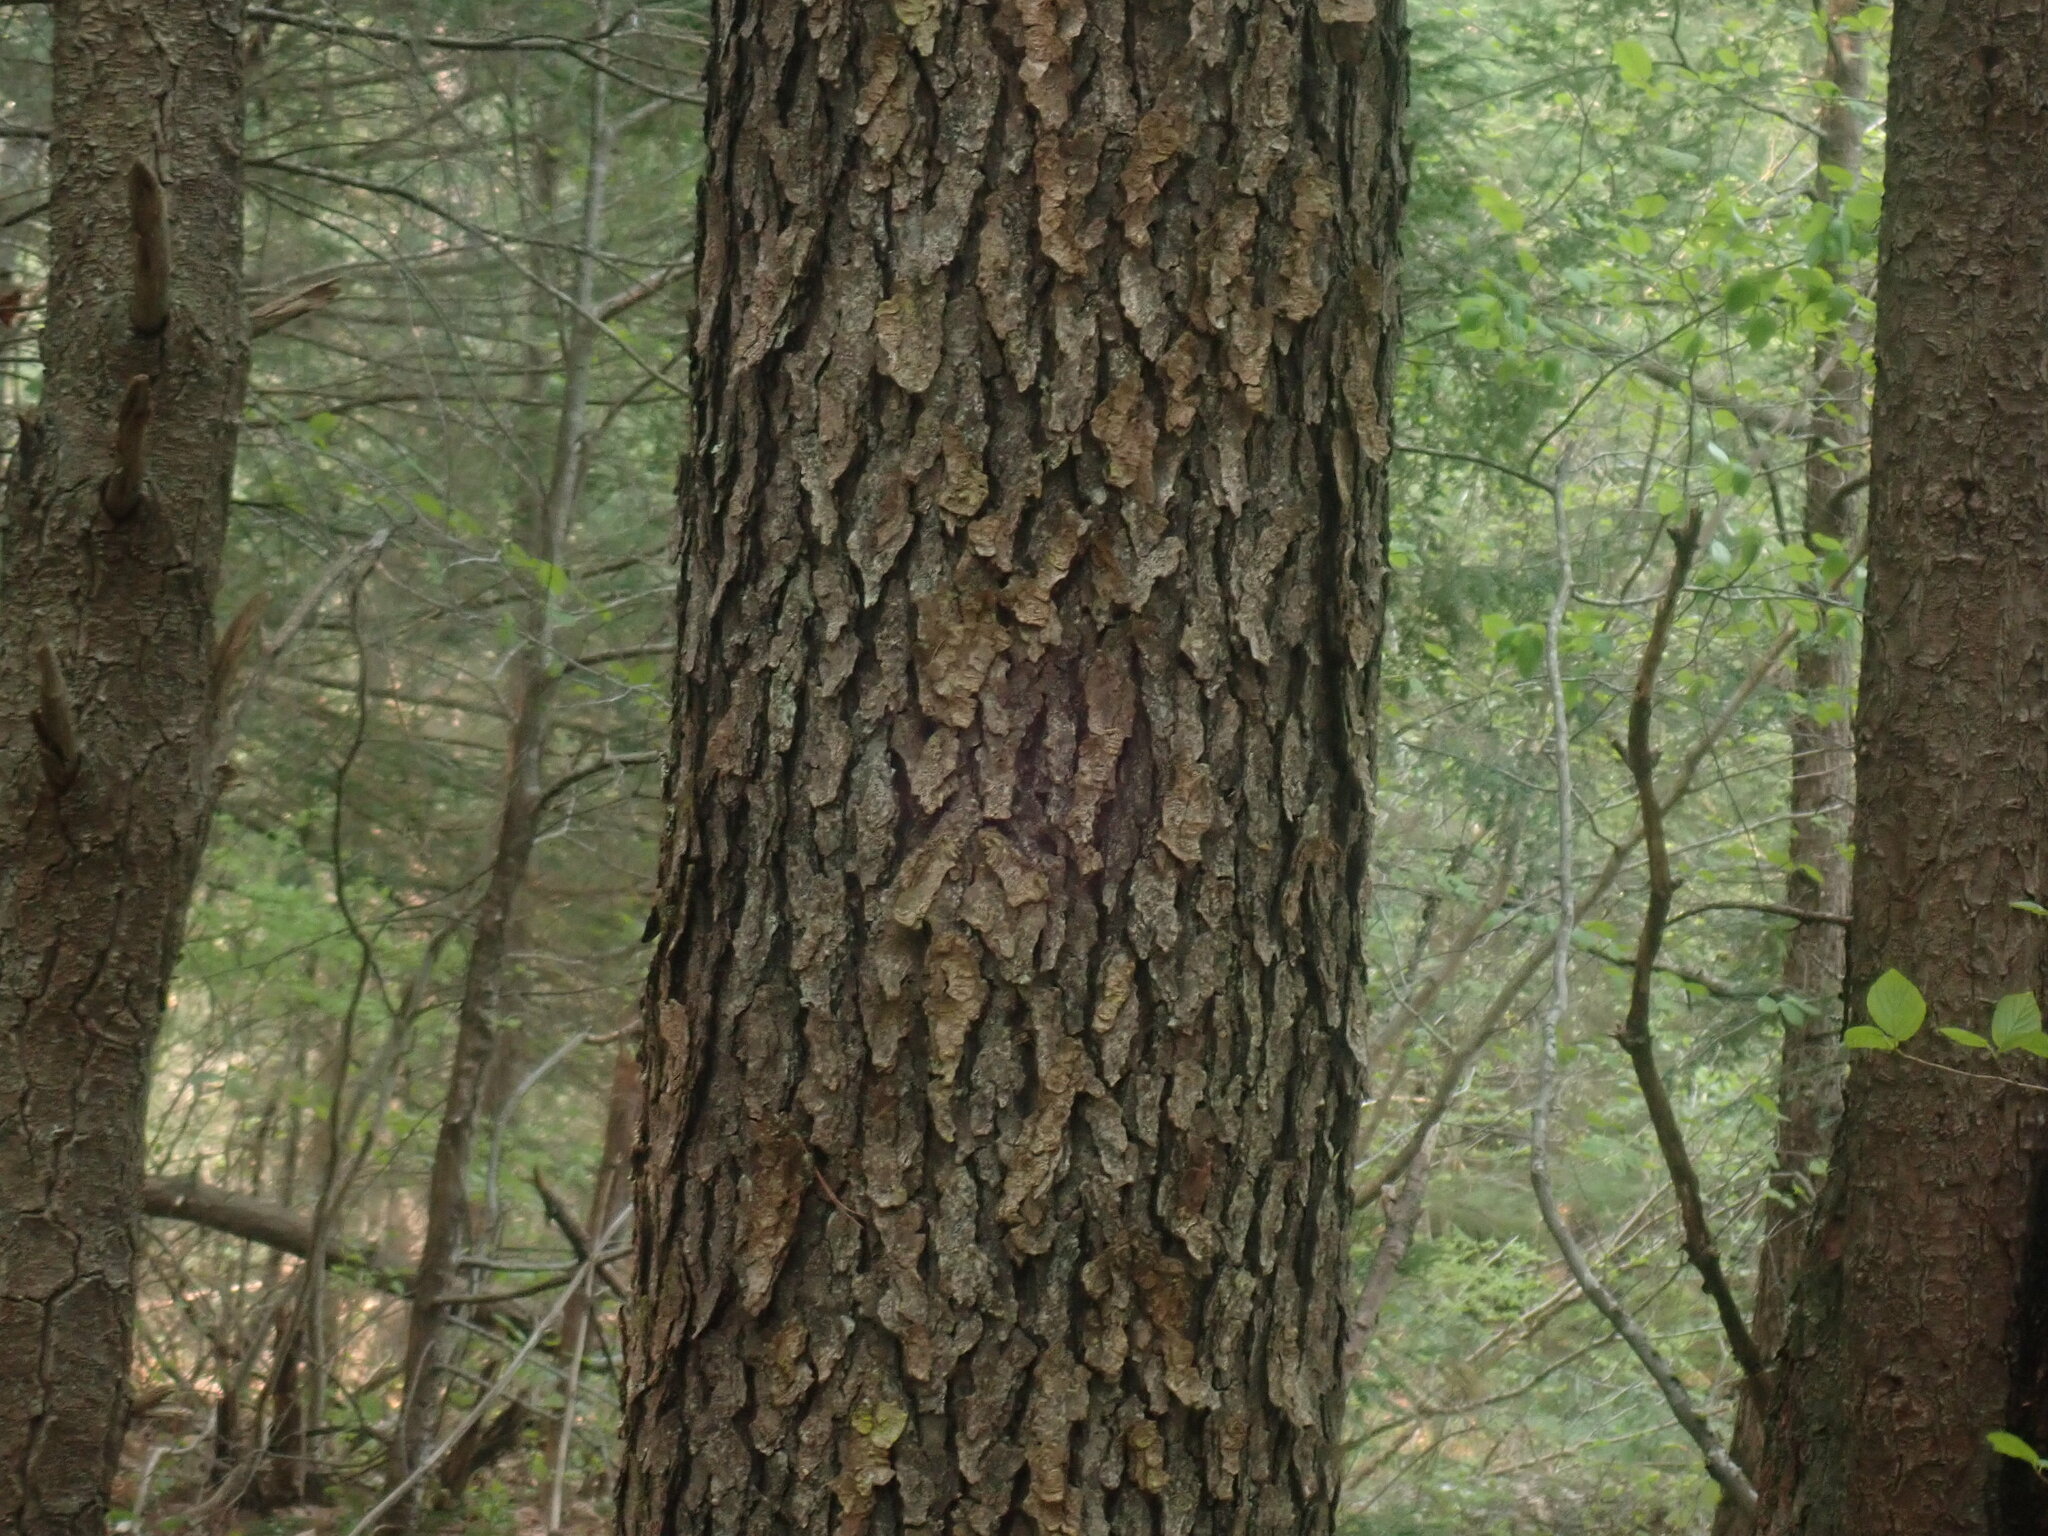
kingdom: Plantae
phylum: Tracheophyta
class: Magnoliopsida
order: Rosales
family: Rosaceae
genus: Prunus
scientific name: Prunus serotina
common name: Black cherry
